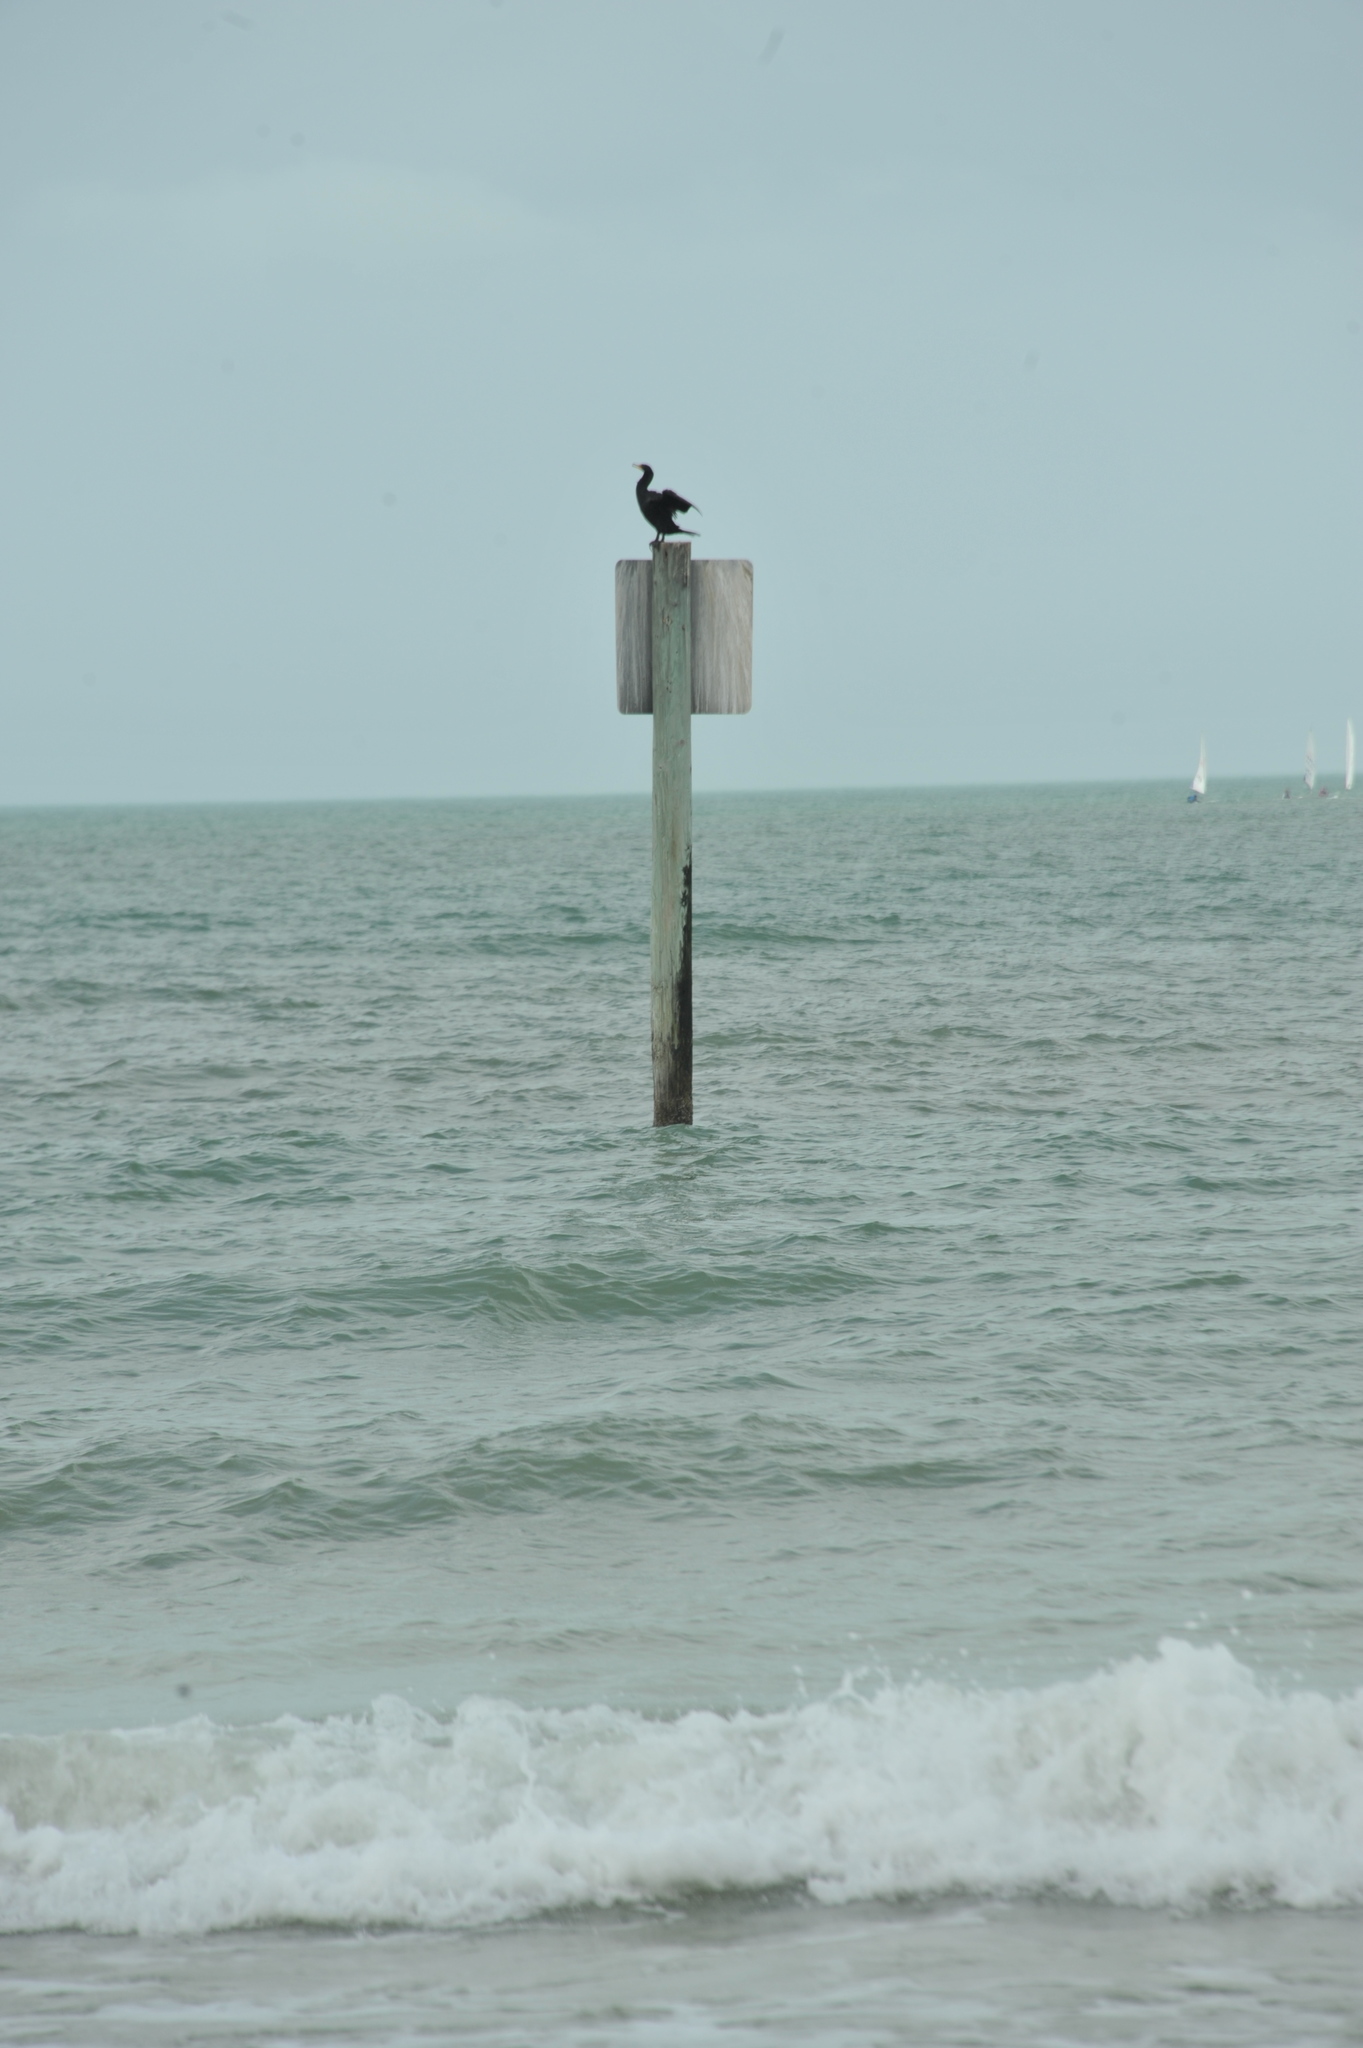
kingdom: Animalia
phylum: Chordata
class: Aves
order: Suliformes
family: Phalacrocoracidae
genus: Phalacrocorax
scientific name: Phalacrocorax auritus
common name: Double-crested cormorant
